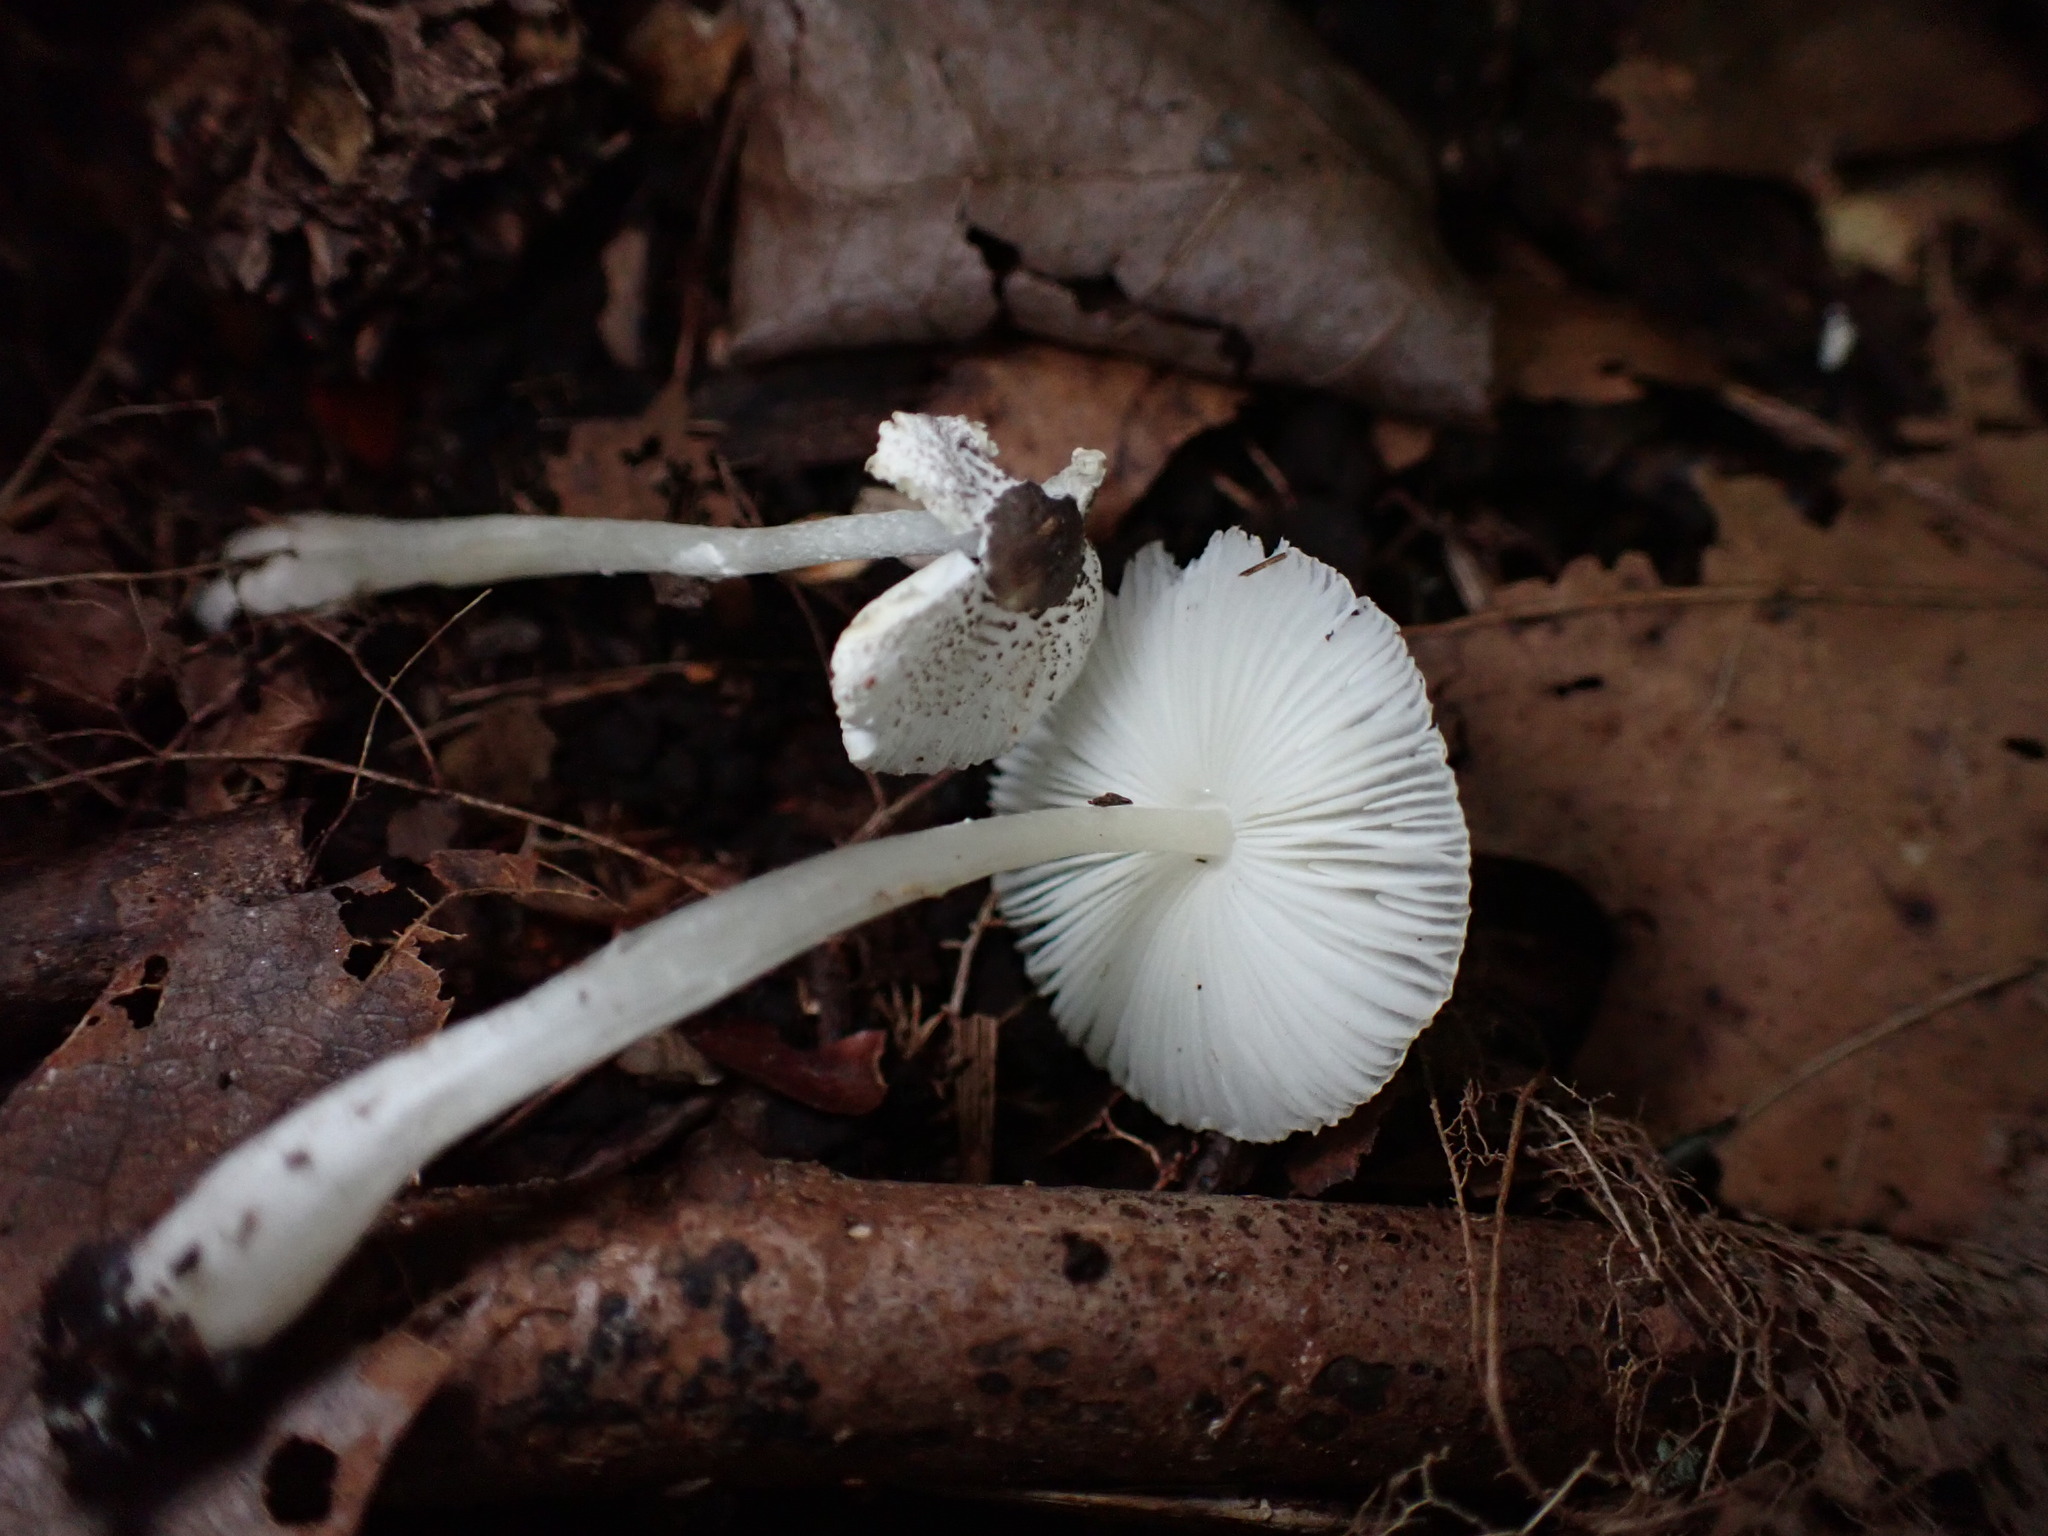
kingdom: Fungi
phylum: Basidiomycota
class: Agaricomycetes
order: Agaricales
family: Agaricaceae
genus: Leucocoprinus
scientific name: Leucocoprinus brebissonii
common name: Skullcap dapperling
